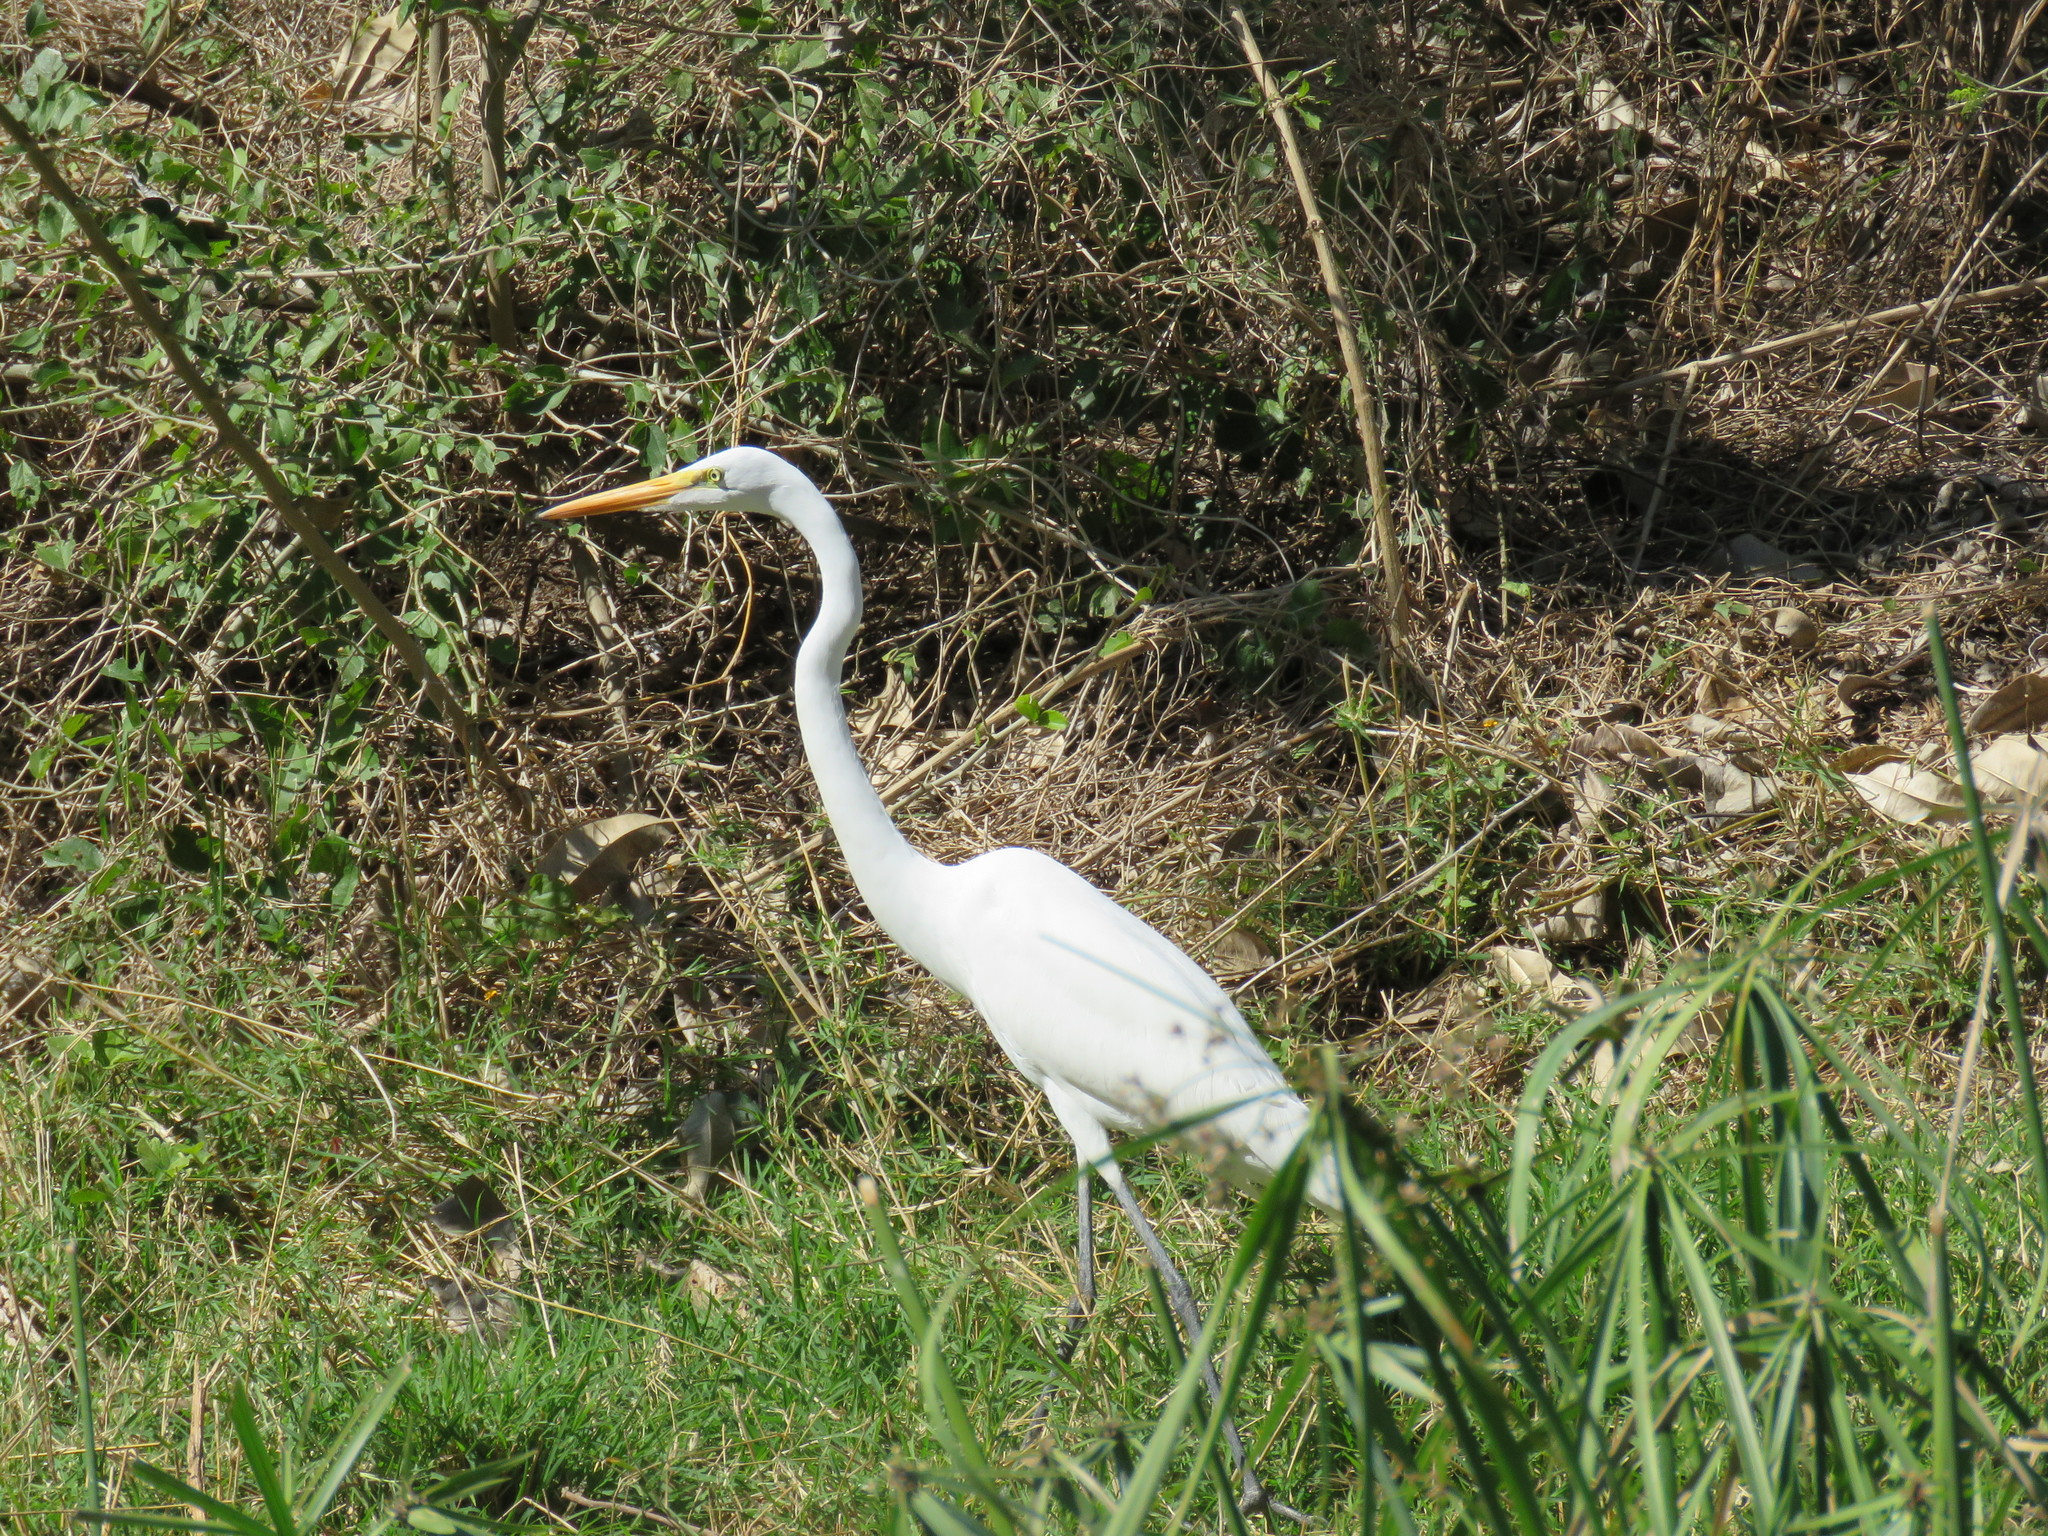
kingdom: Animalia
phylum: Chordata
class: Aves
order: Pelecaniformes
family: Ardeidae
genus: Ardea
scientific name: Ardea alba
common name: Great egret
